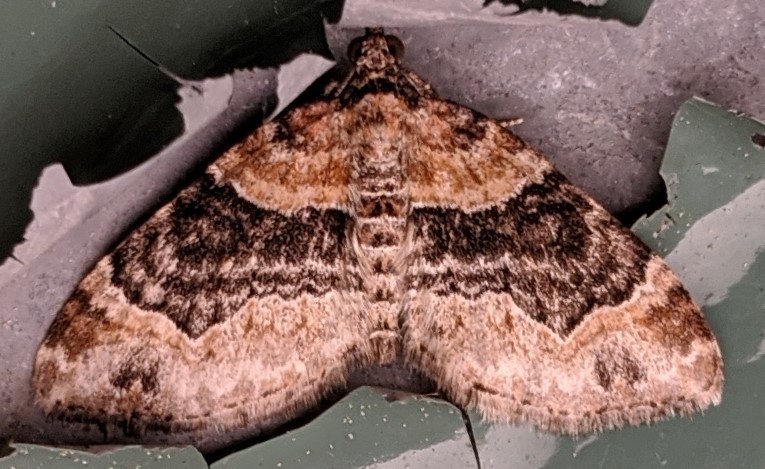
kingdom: Animalia
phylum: Arthropoda
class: Insecta
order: Lepidoptera
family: Geometridae
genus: Xanthorhoe
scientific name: Xanthorhoe ferrugata
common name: Dark-barred twin-spot carpet
